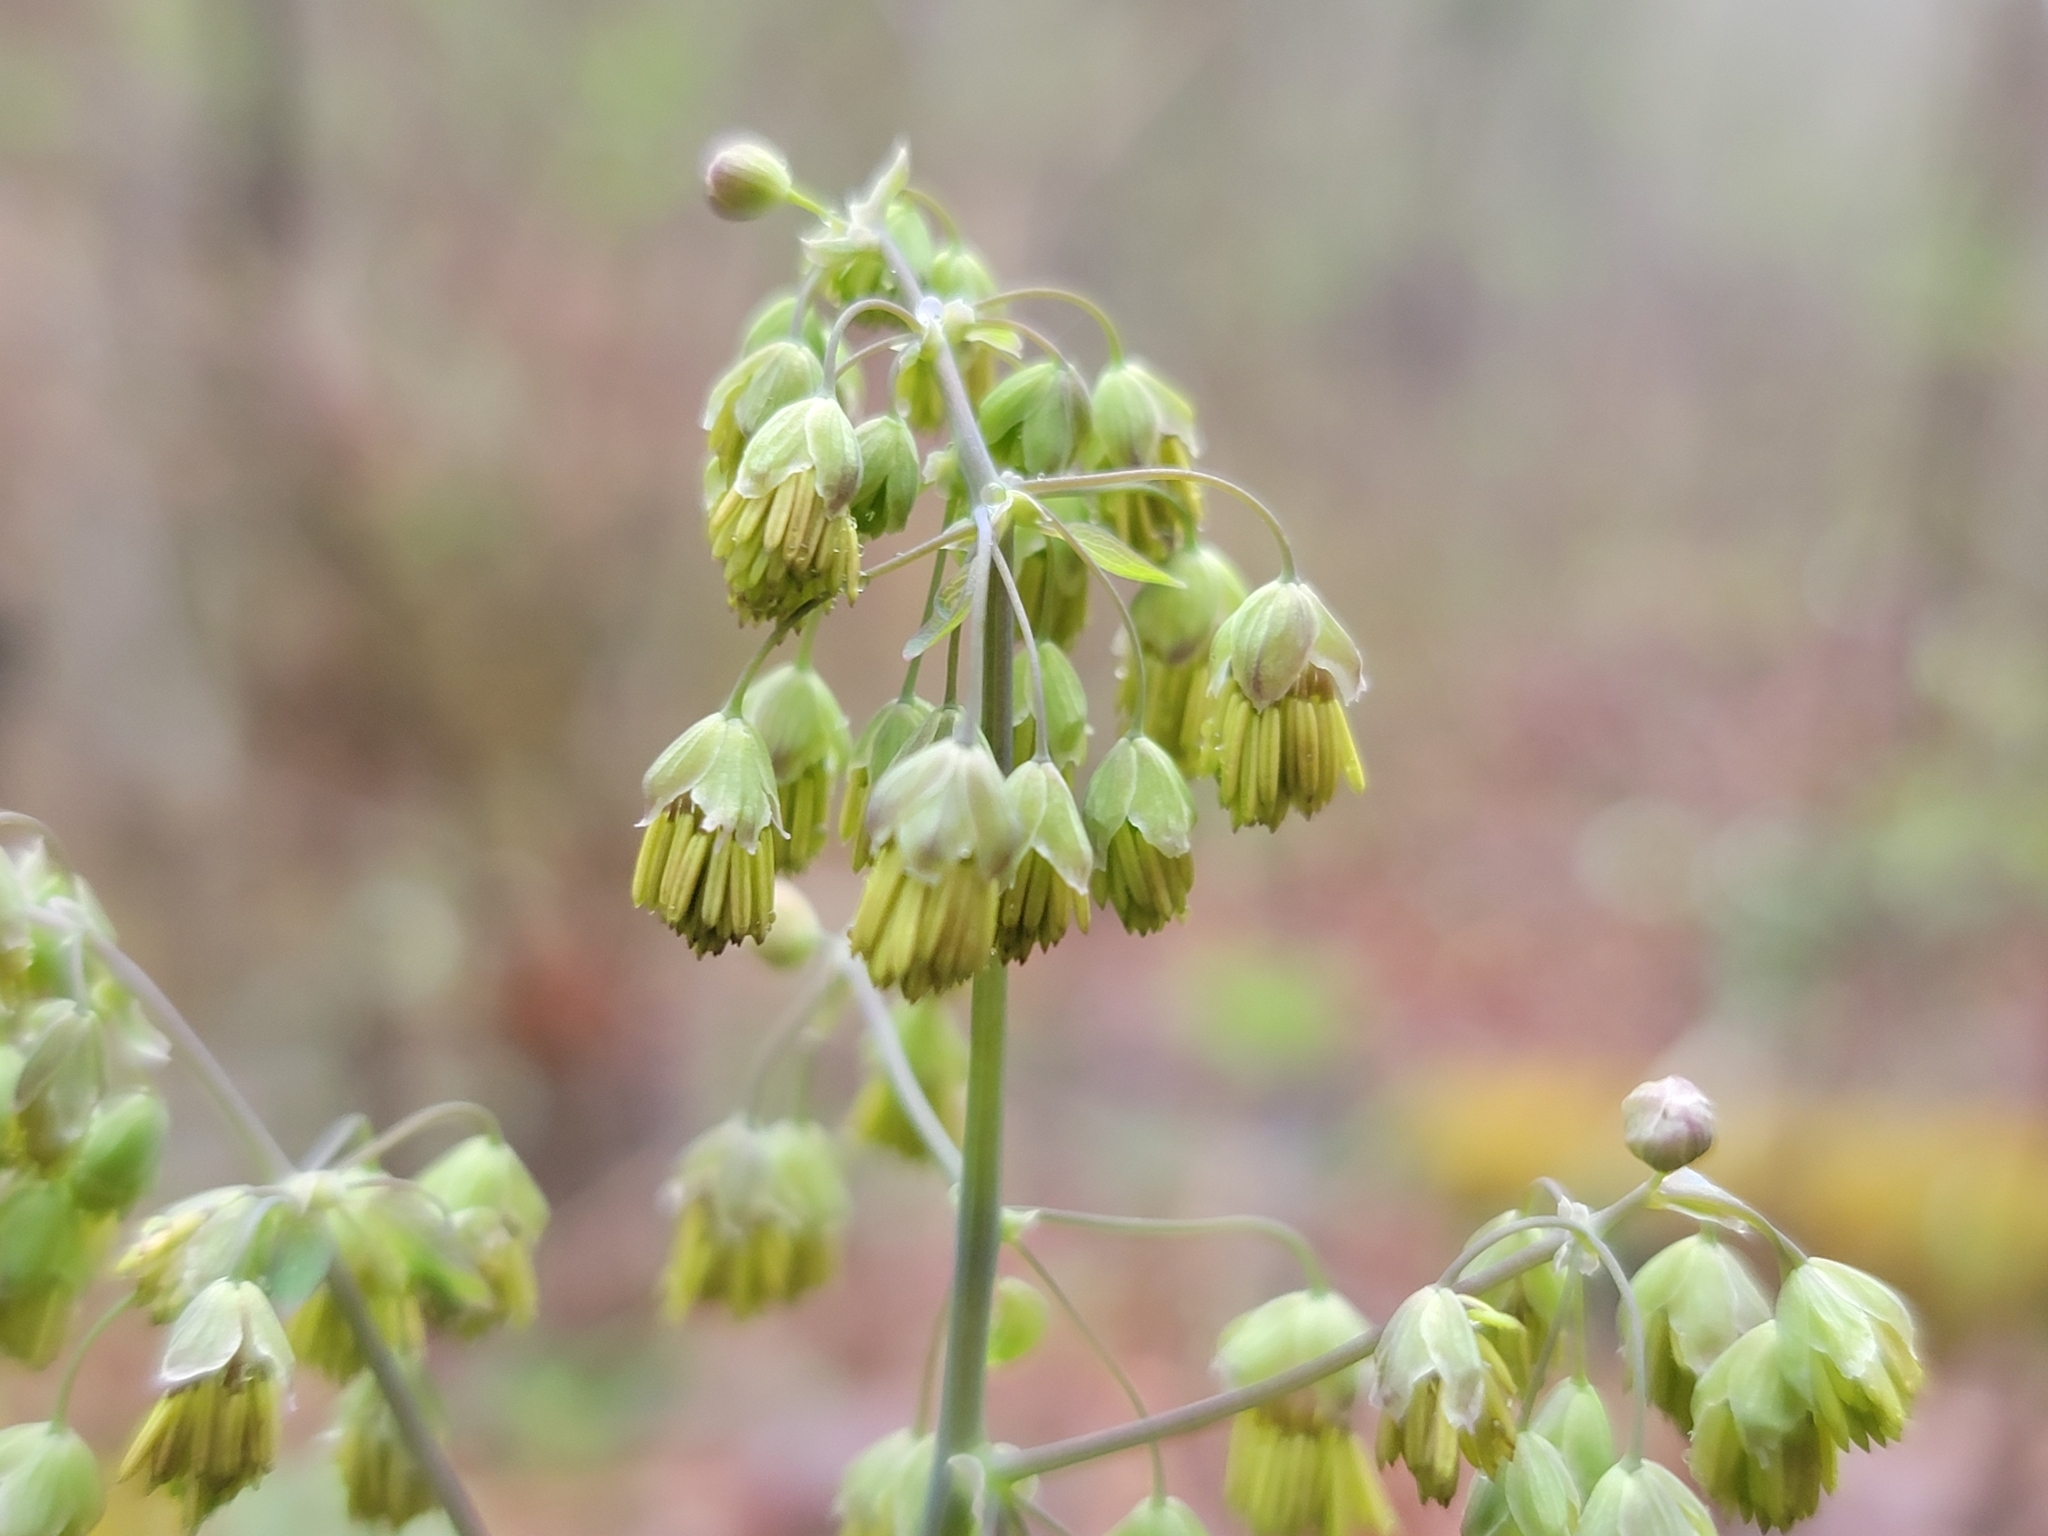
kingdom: Plantae
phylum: Tracheophyta
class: Magnoliopsida
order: Ranunculales
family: Ranunculaceae
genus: Thalictrum
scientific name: Thalictrum dioicum
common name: Early meadow-rue
